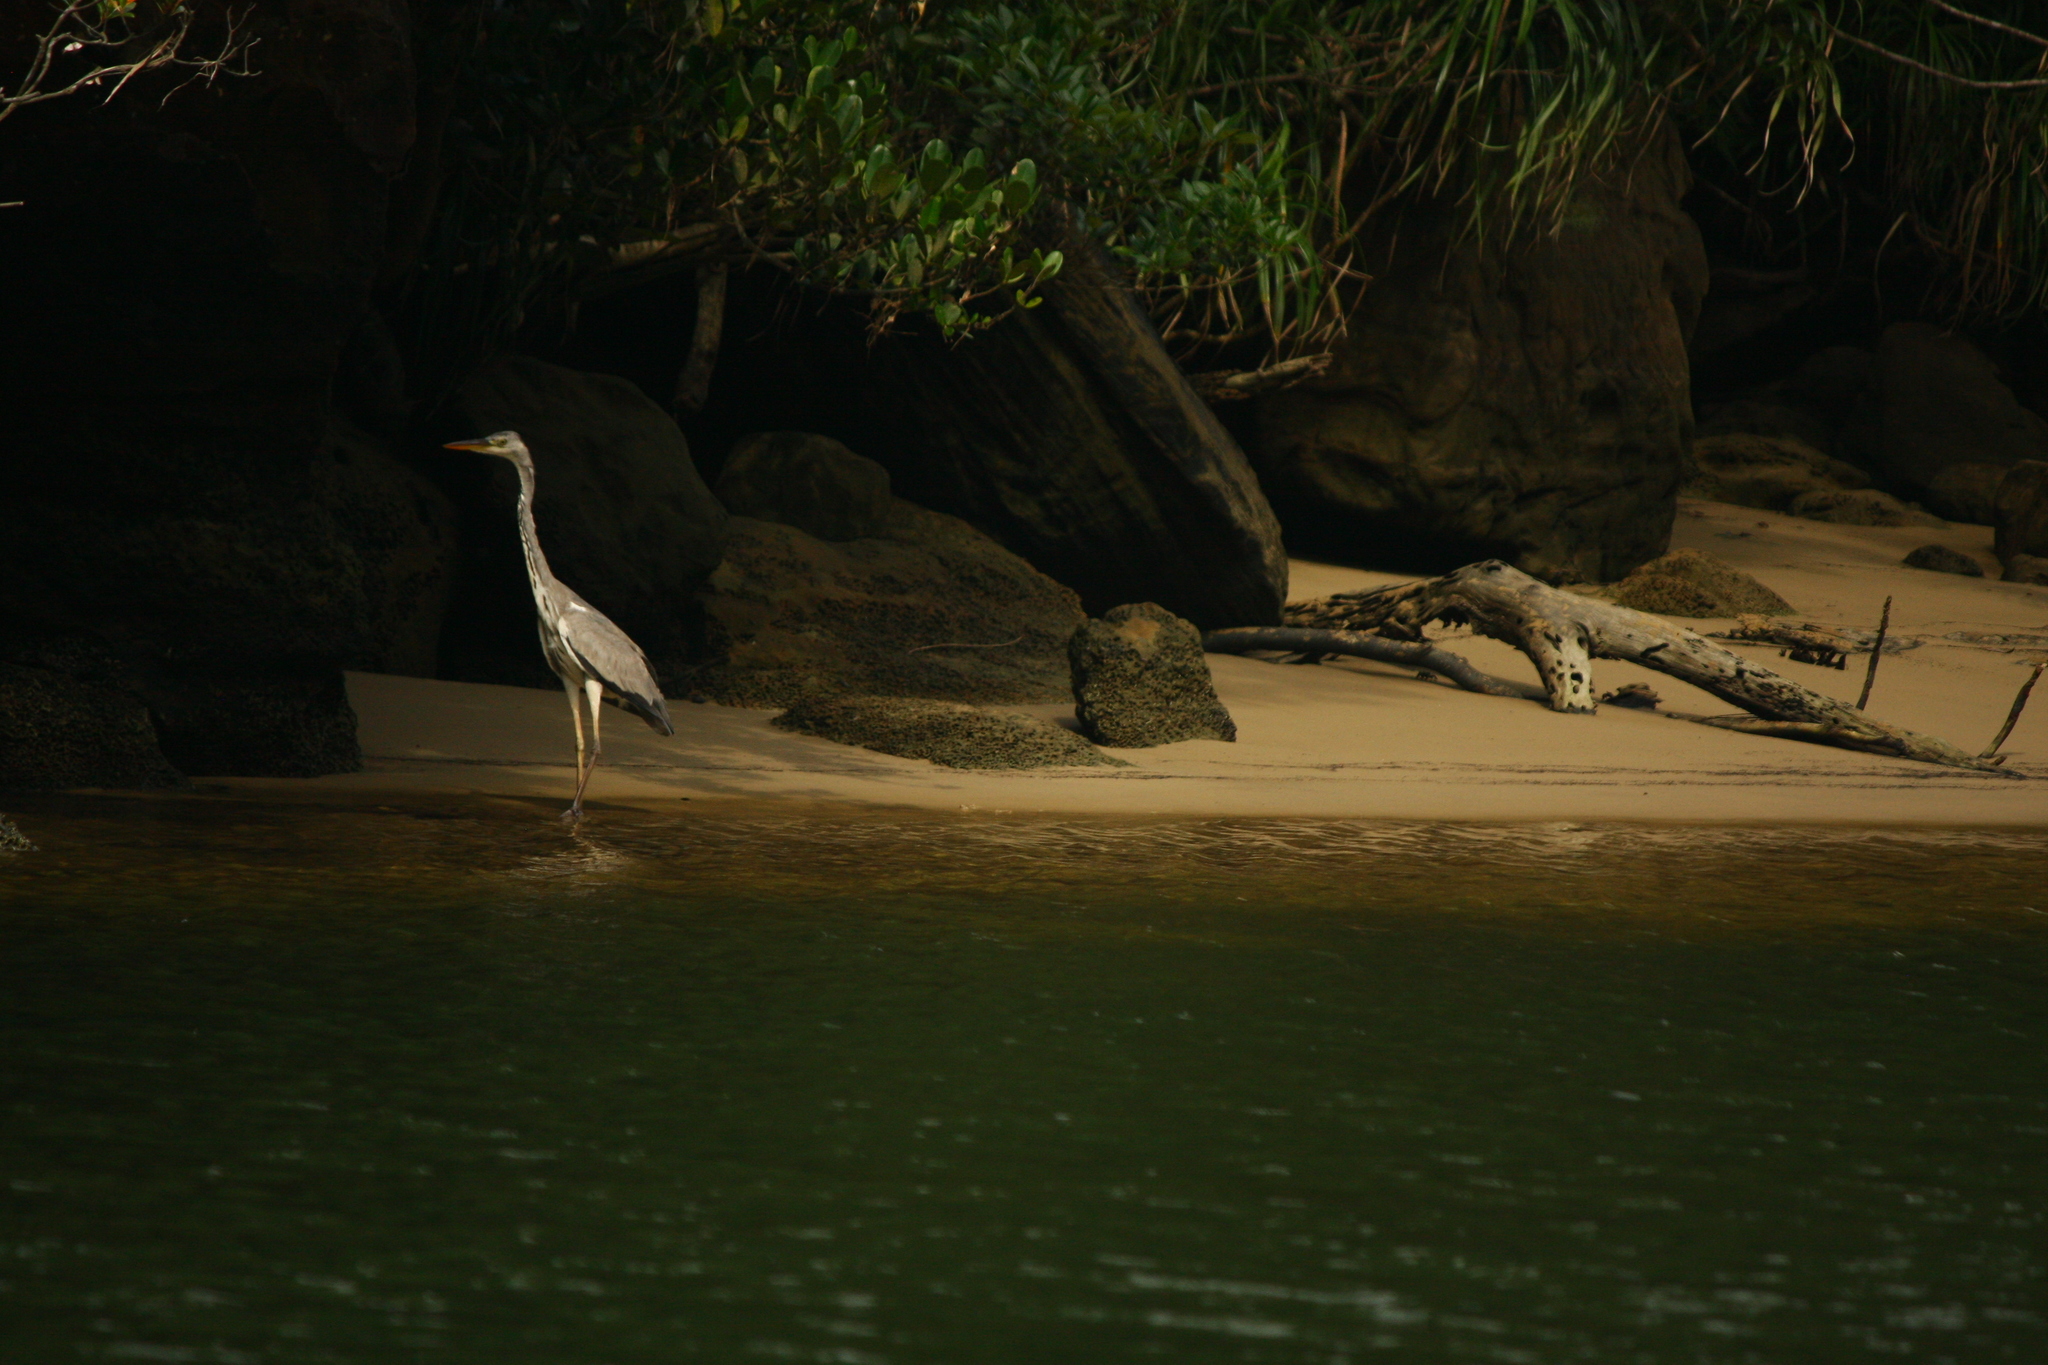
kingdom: Animalia
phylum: Chordata
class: Aves
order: Pelecaniformes
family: Ardeidae
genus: Ardea
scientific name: Ardea cinerea
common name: Grey heron
